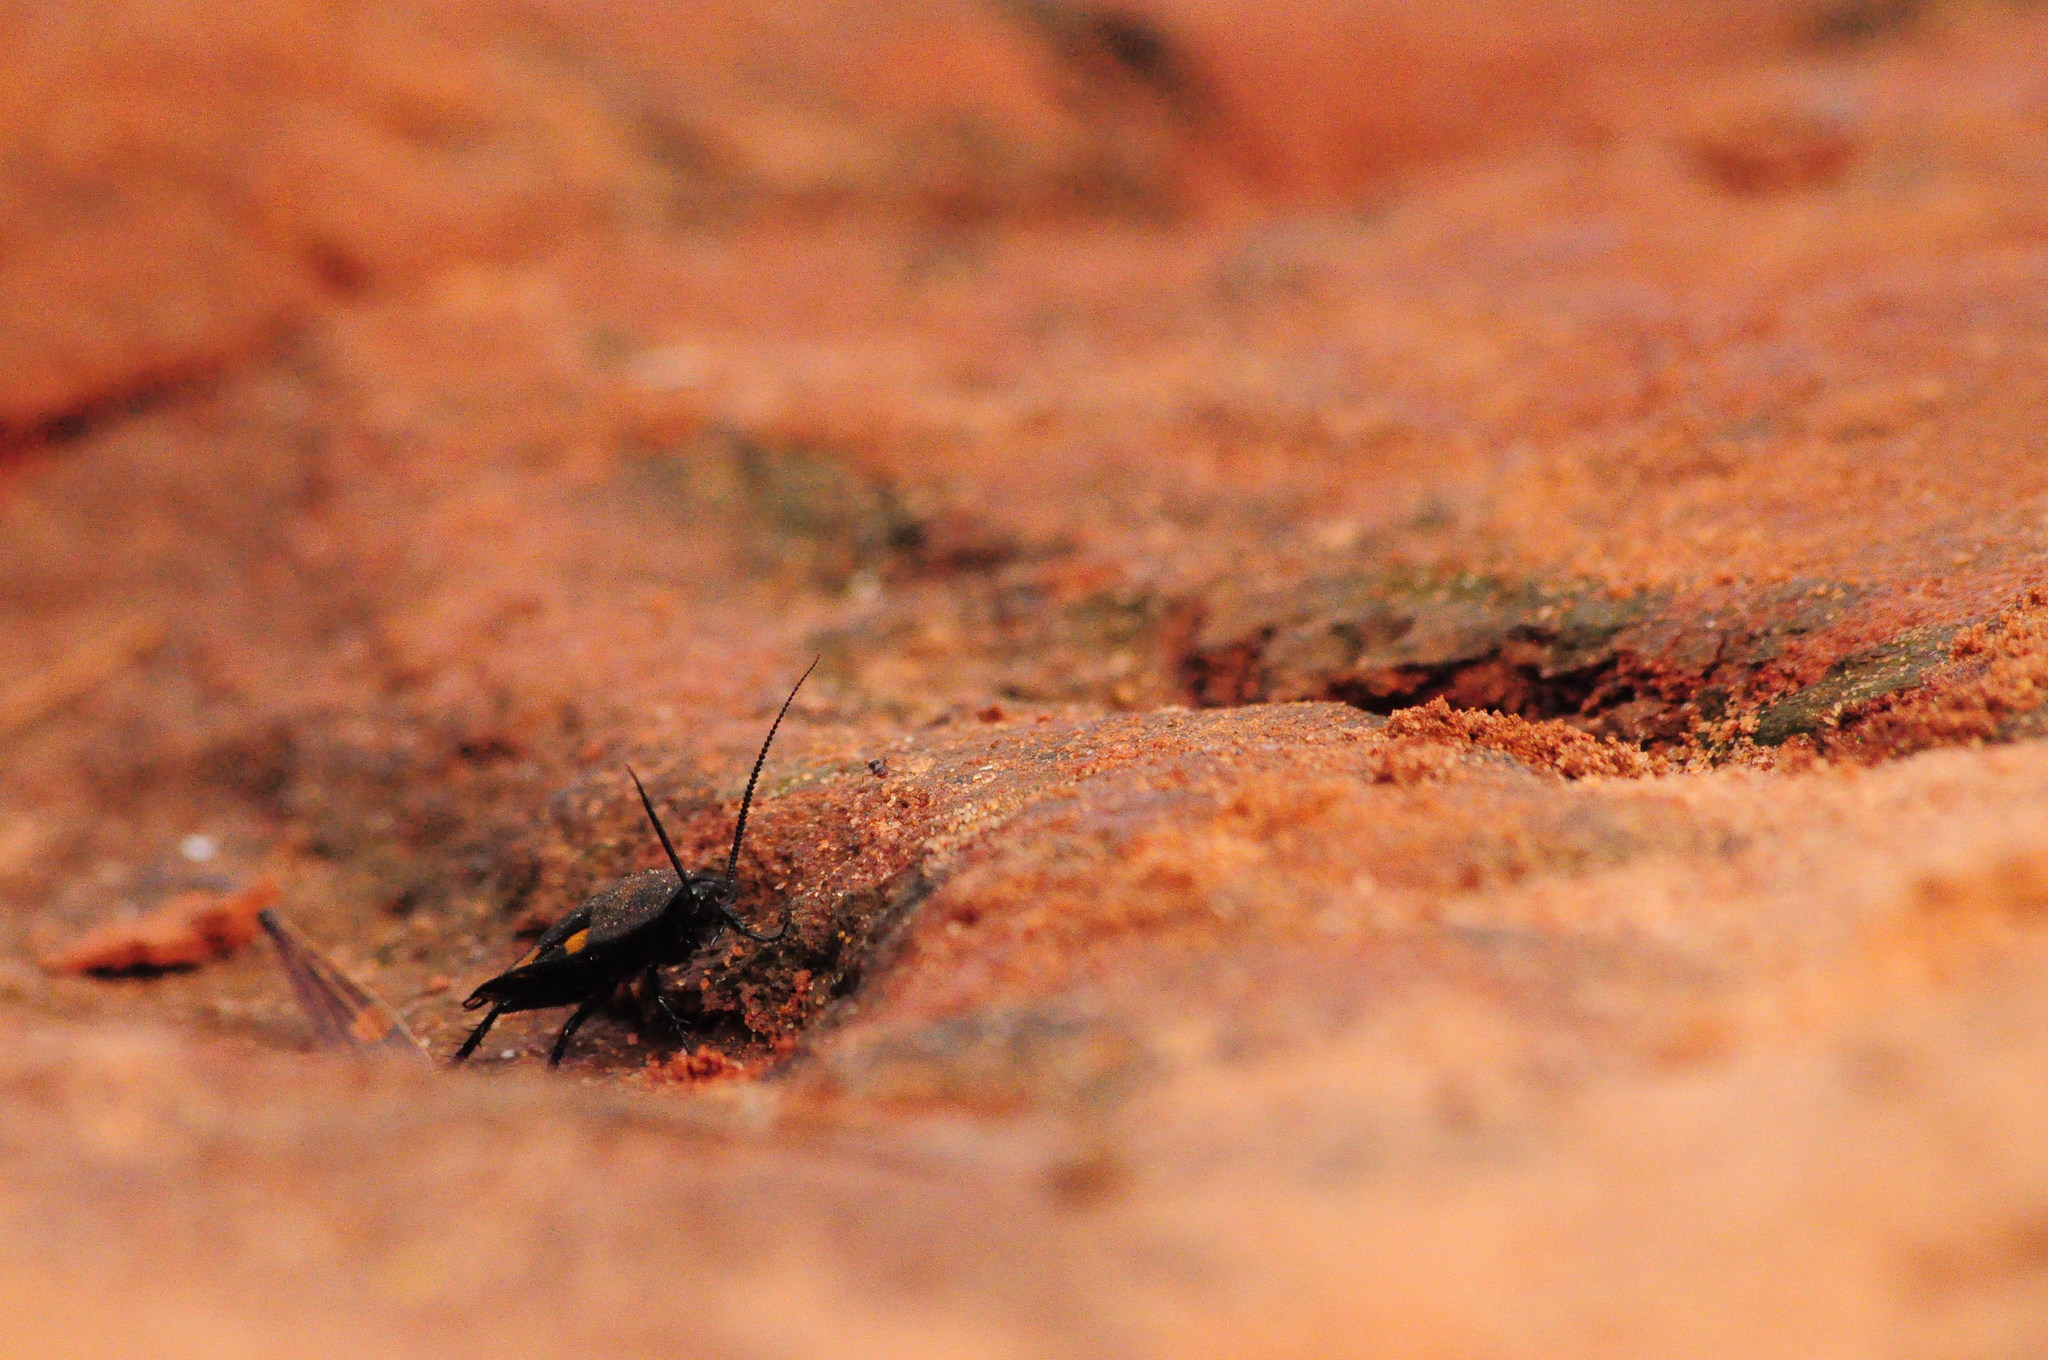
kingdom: Animalia
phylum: Arthropoda
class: Insecta
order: Blattodea
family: Corydiidae
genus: Therea
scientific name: Therea petiveriana
